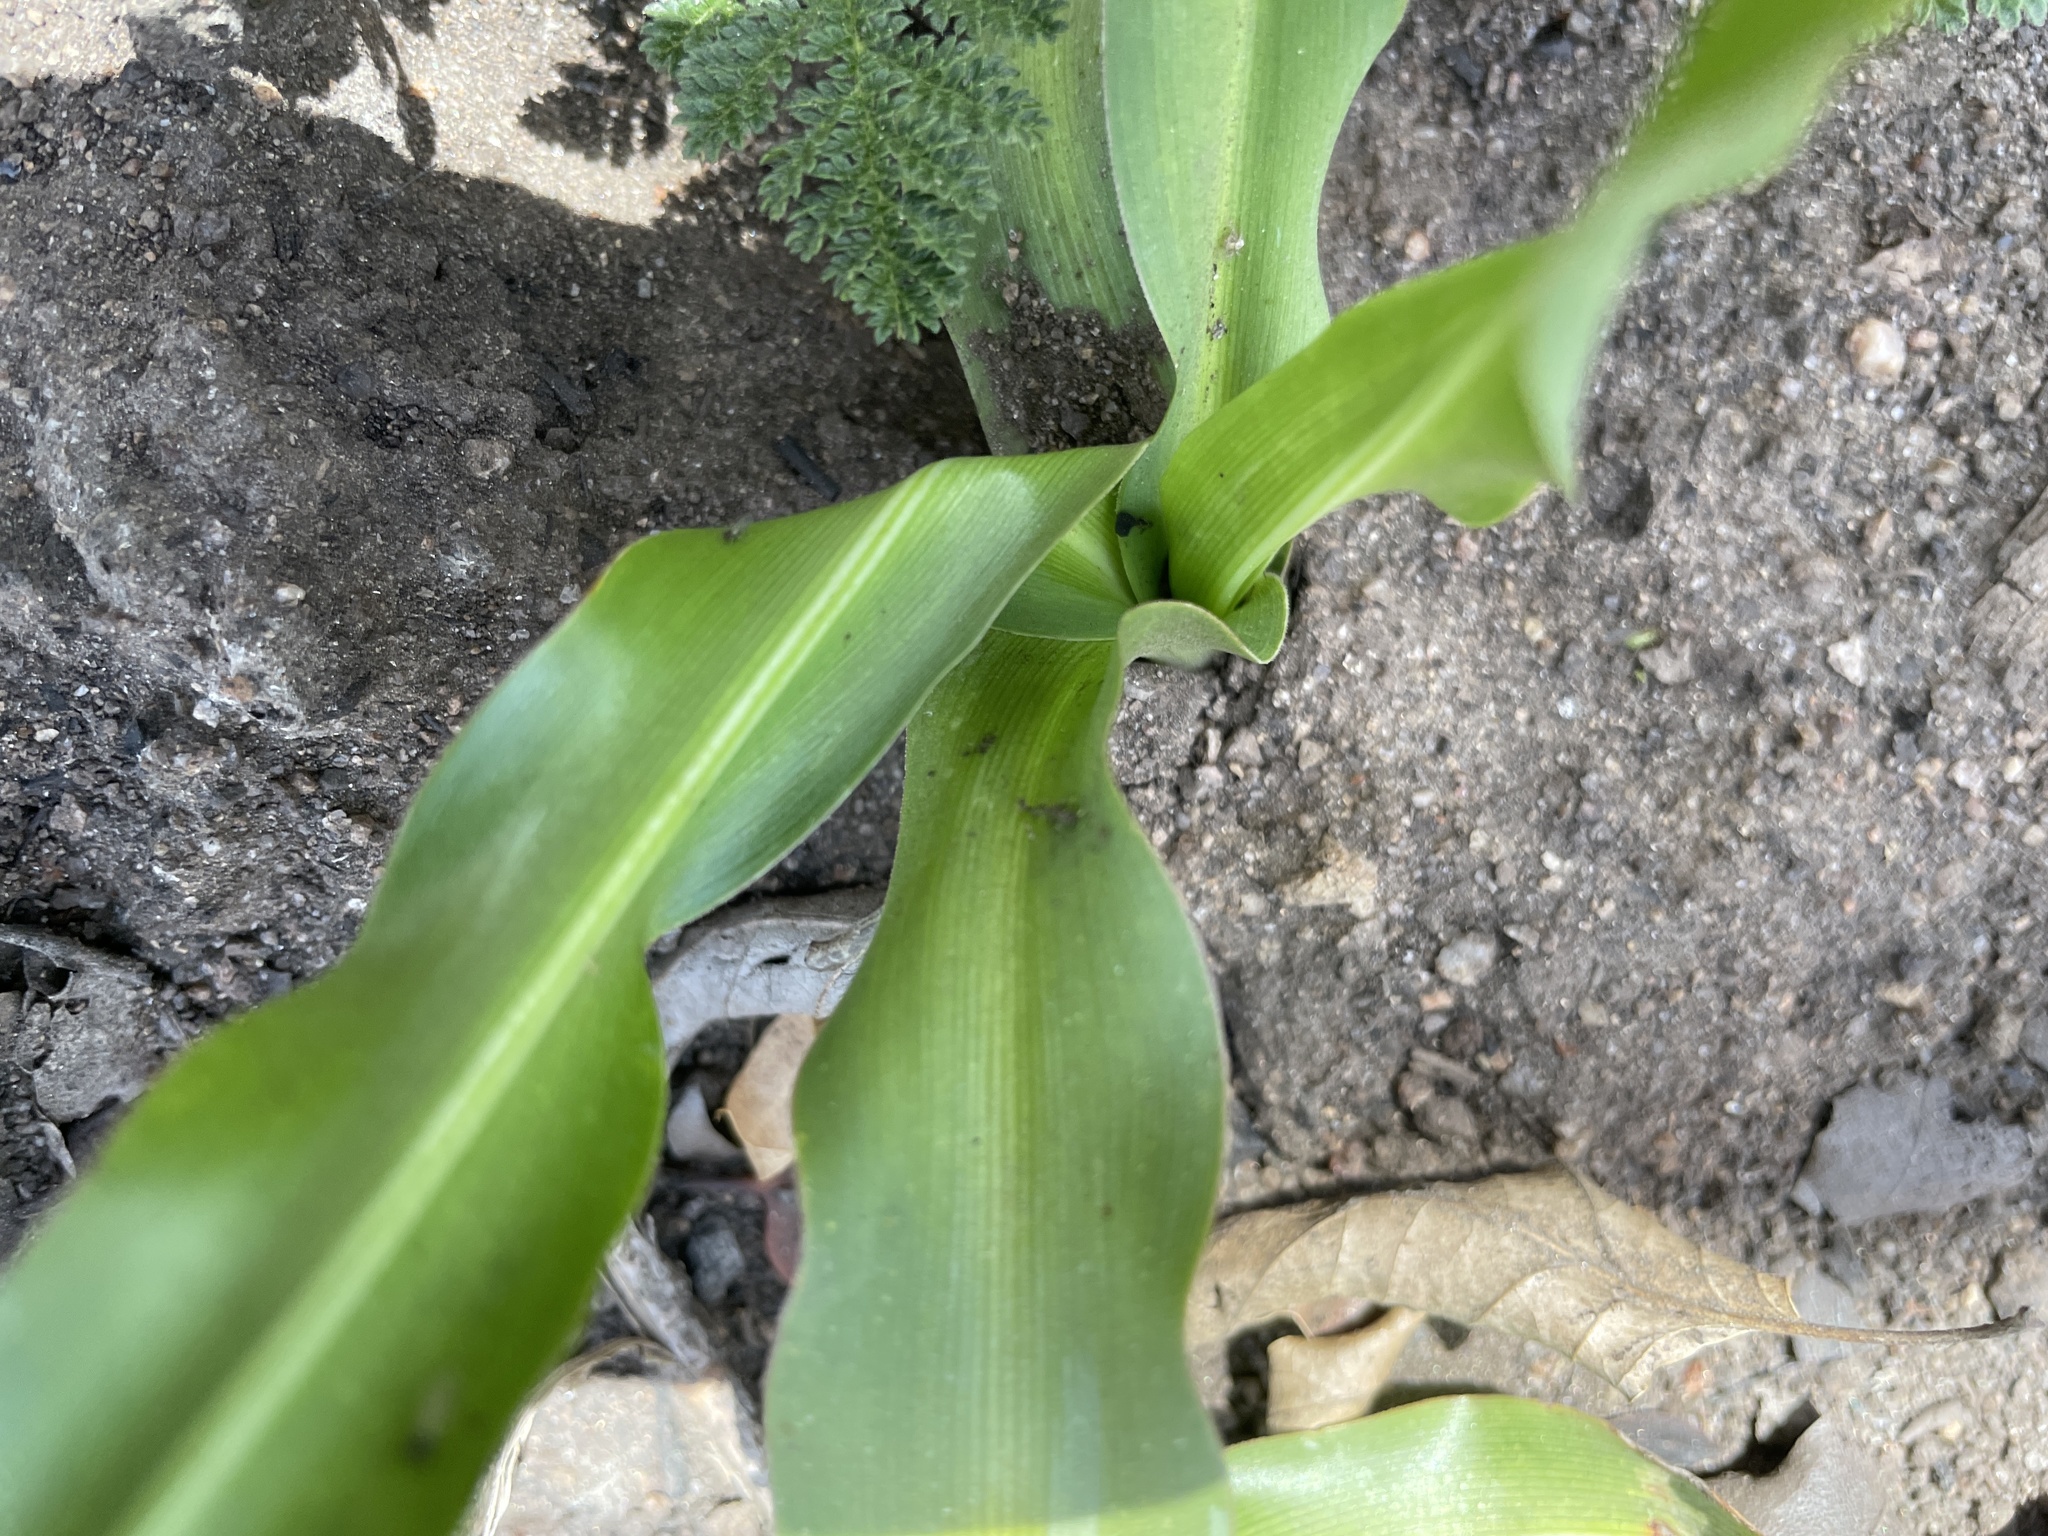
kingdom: Plantae
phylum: Tracheophyta
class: Liliopsida
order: Asparagales
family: Asparagaceae
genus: Chlorogalum
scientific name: Chlorogalum pomeridianum
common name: Amole
